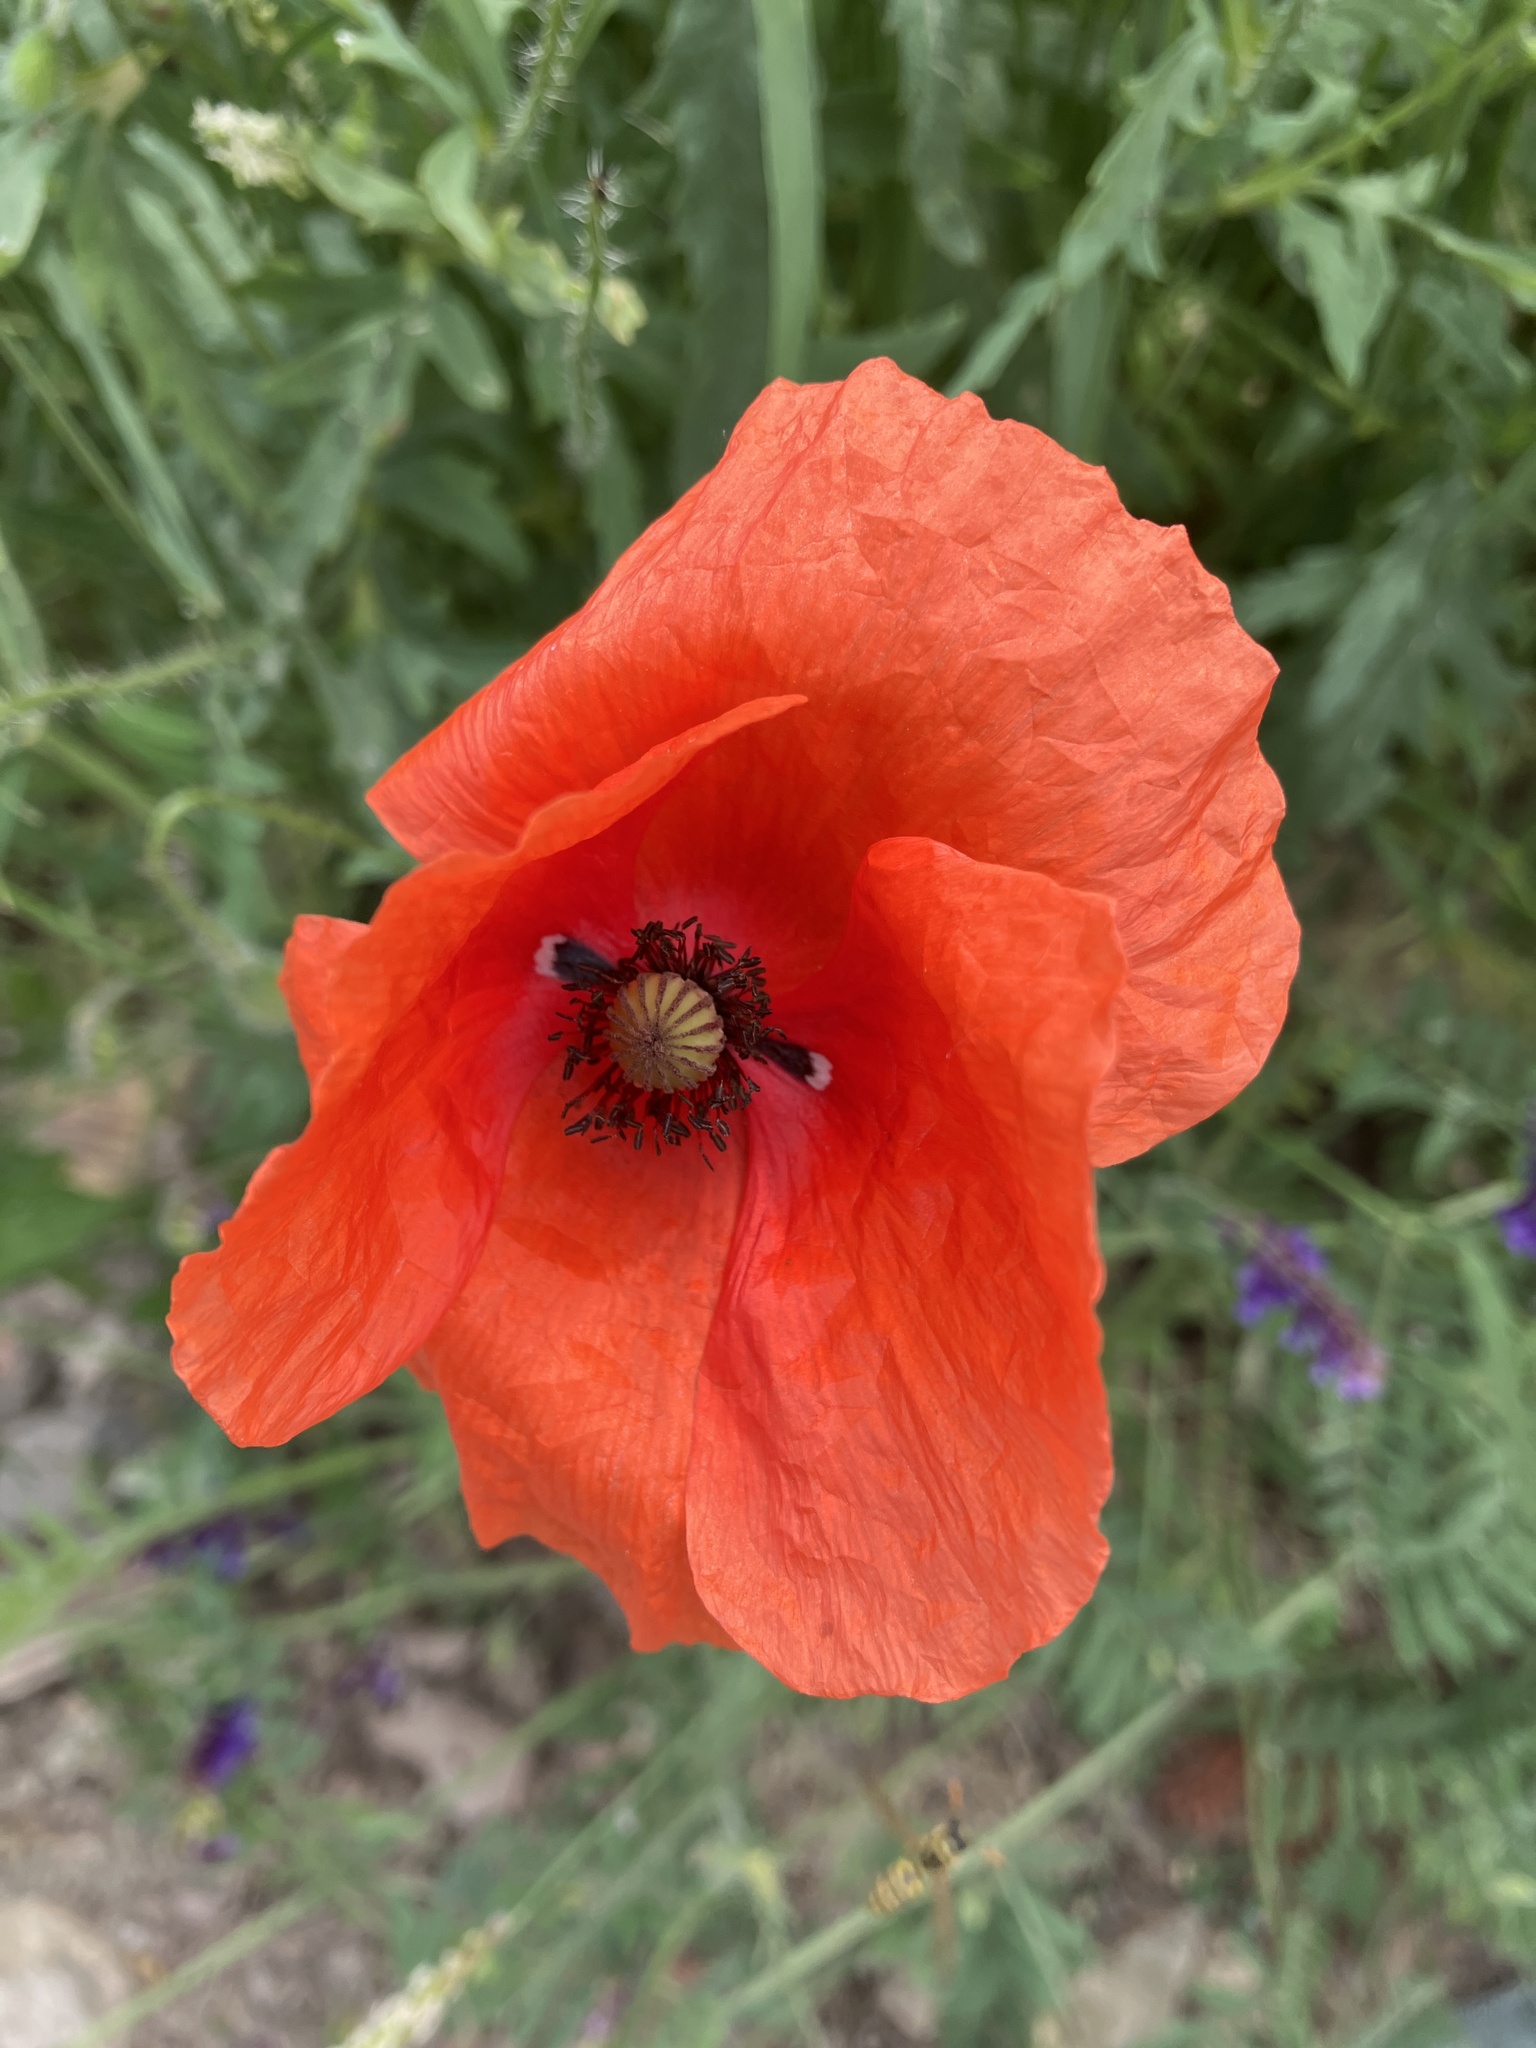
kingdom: Plantae
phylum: Tracheophyta
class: Magnoliopsida
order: Ranunculales
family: Papaveraceae
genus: Papaver
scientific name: Papaver rhoeas
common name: Corn poppy
